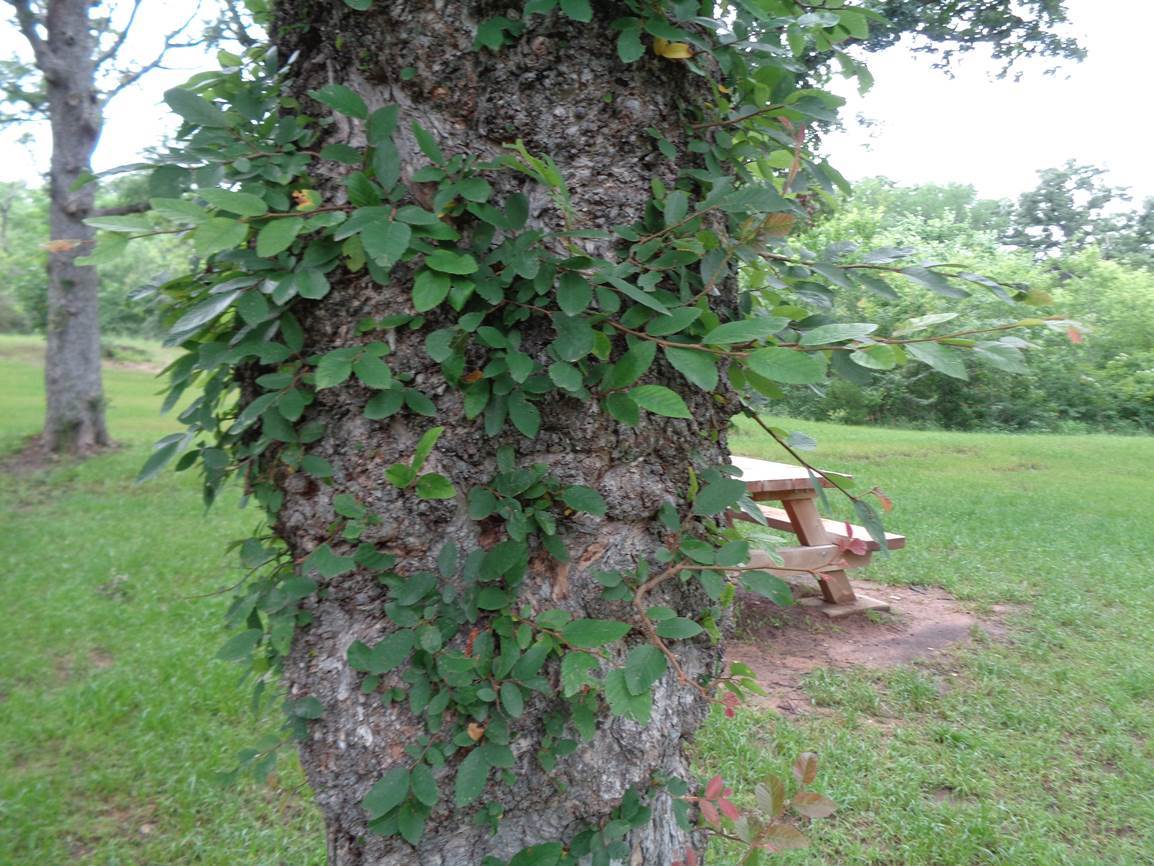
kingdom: Plantae
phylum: Tracheophyta
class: Magnoliopsida
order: Rosales
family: Ulmaceae
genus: Ulmus
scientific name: Ulmus crassifolia
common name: Basket elm
